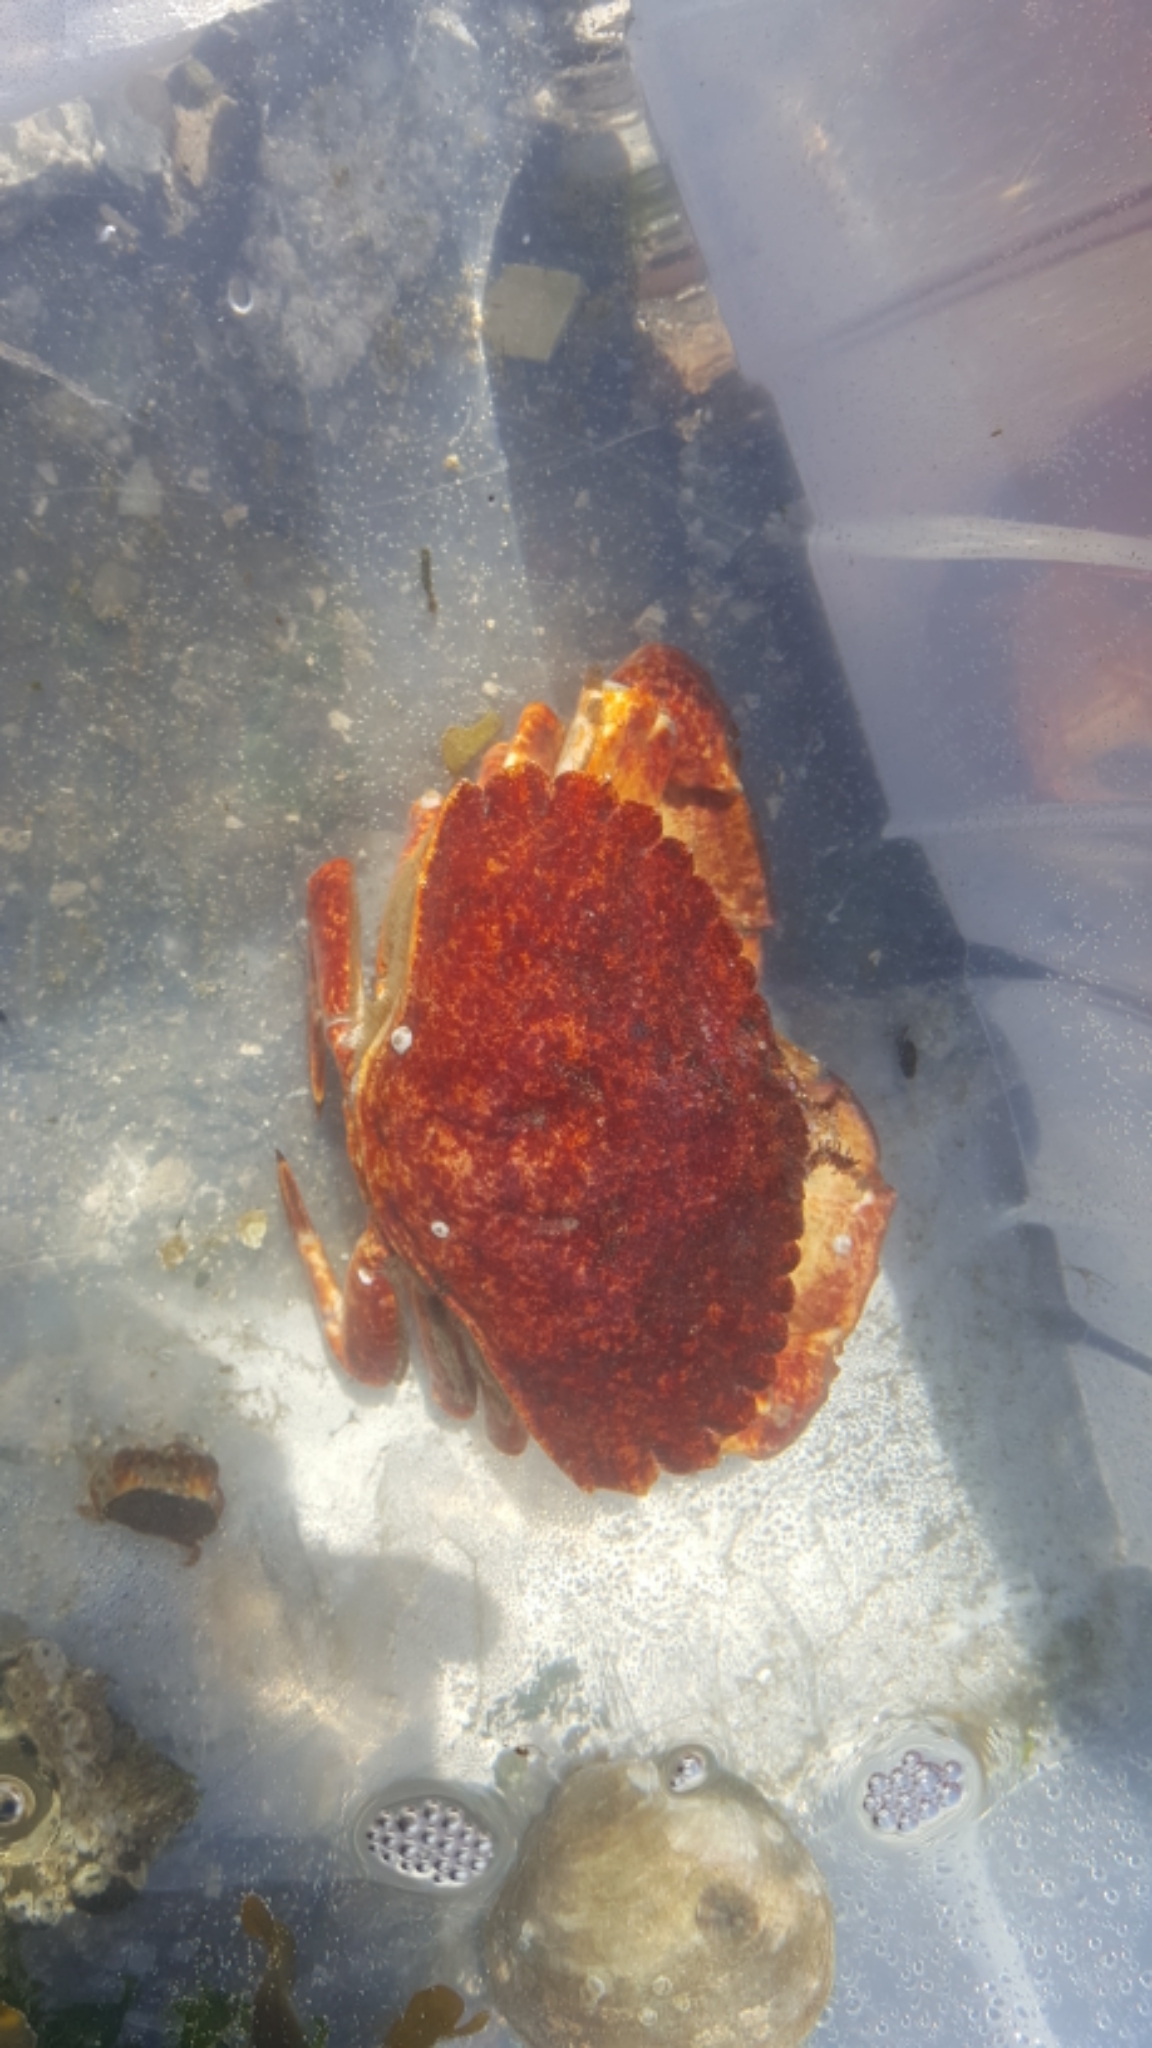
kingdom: Animalia
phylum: Arthropoda
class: Malacostraca
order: Decapoda
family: Cancridae
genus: Cancer
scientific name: Cancer productus
